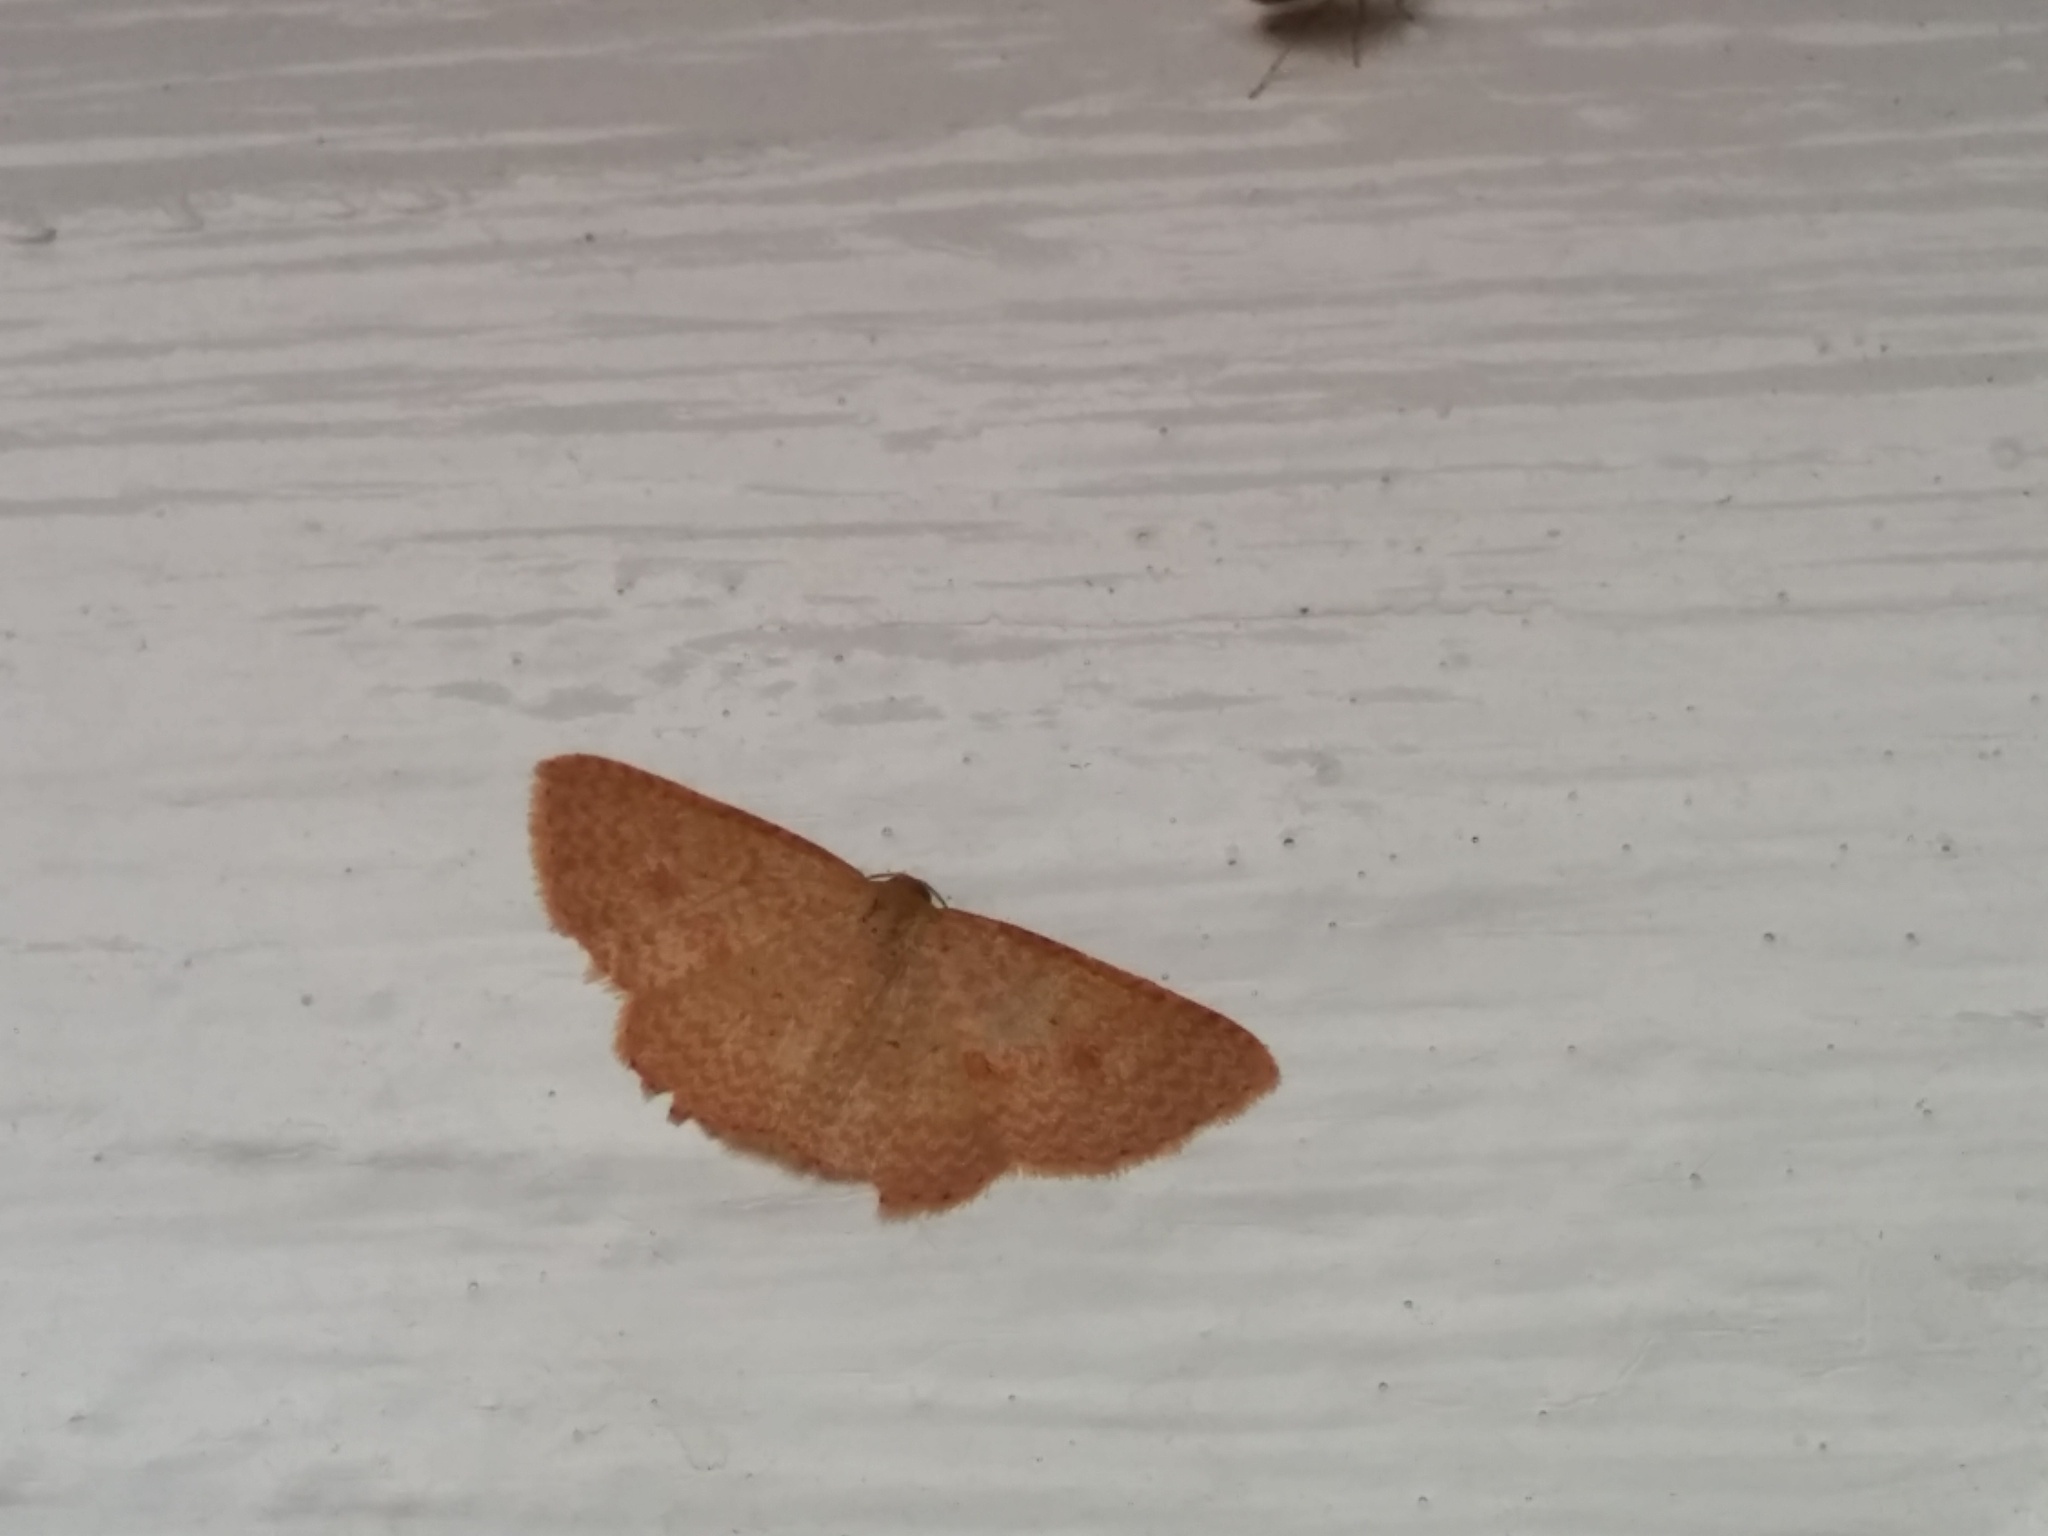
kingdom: Animalia
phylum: Arthropoda
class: Insecta
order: Lepidoptera
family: Geometridae
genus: Epicyme
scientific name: Epicyme rubropunctaria
